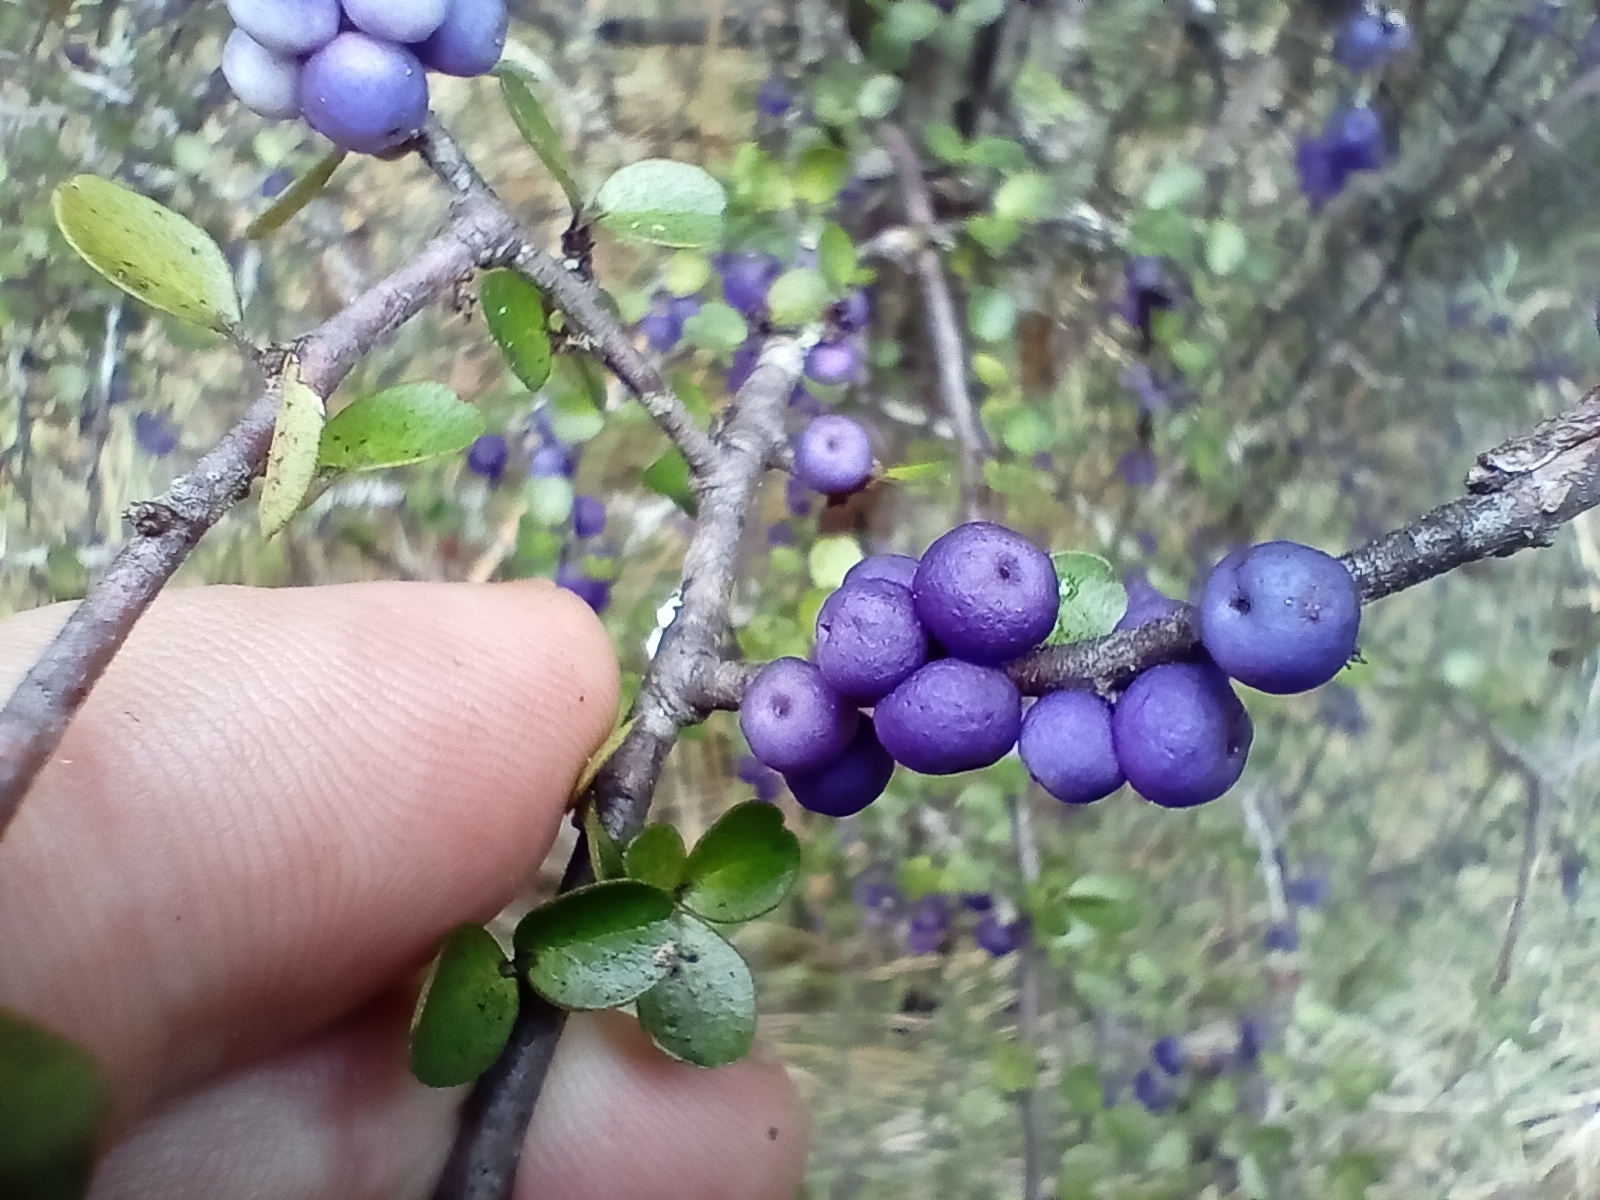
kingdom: Plantae
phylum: Tracheophyta
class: Magnoliopsida
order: Ericales
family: Primulaceae
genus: Myrsine
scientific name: Myrsine divaricata
